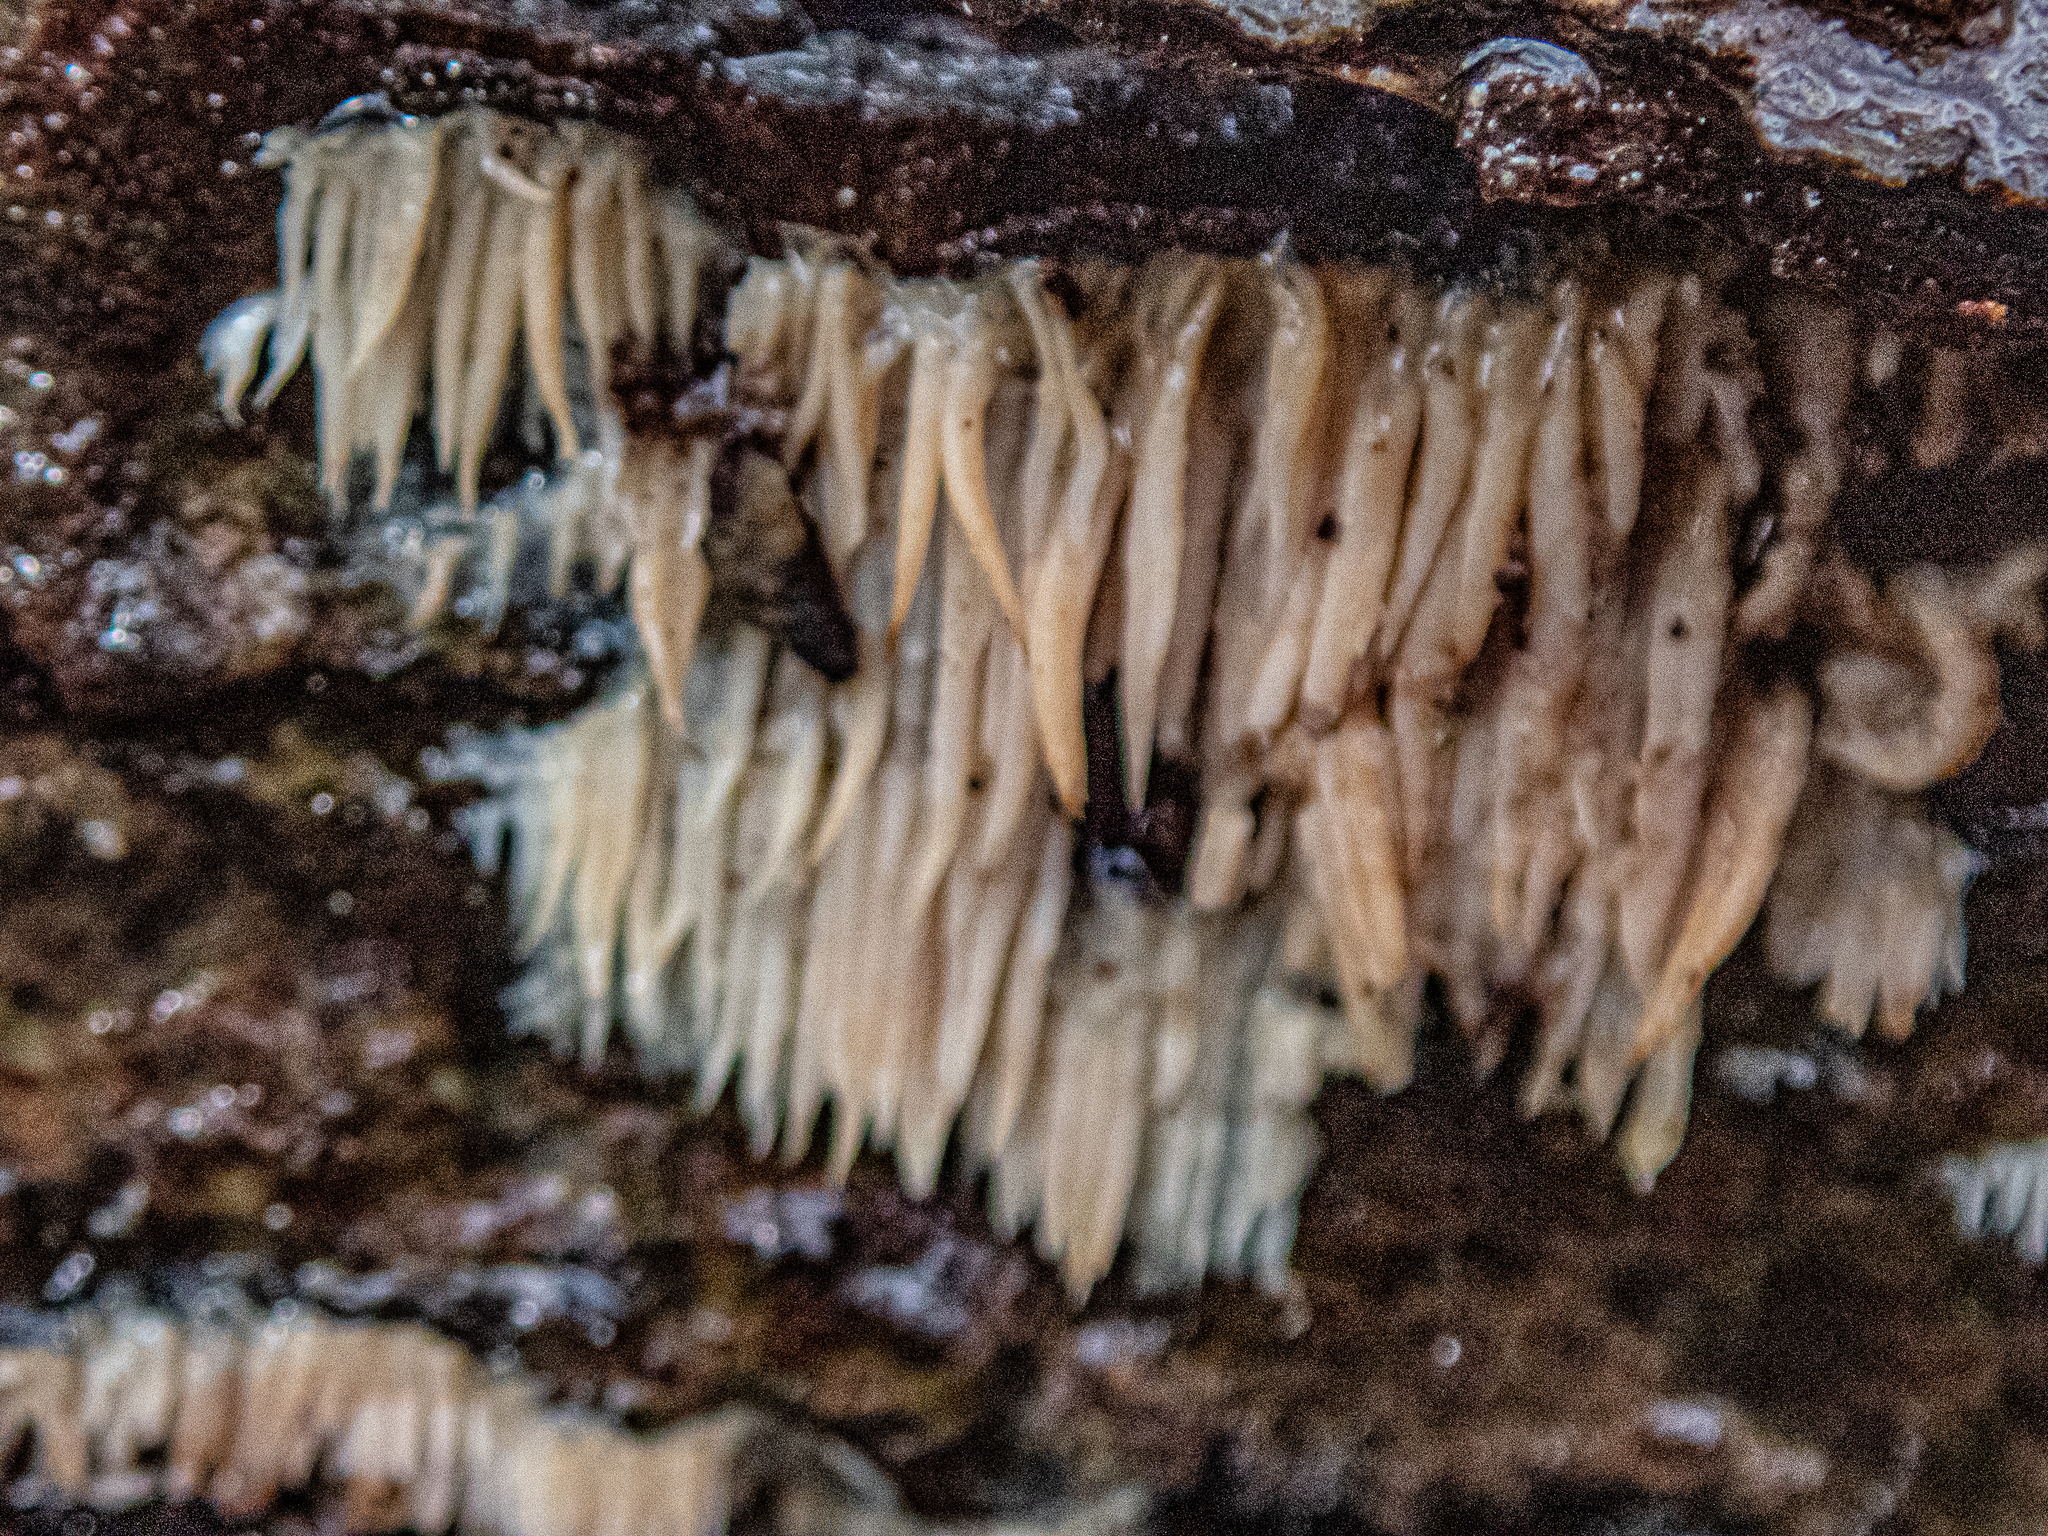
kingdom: Fungi
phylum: Basidiomycota
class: Agaricomycetes
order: Agaricales
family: Radulomycetaceae
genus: Radulomyces
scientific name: Radulomyces copelandii
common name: Asian beauty
